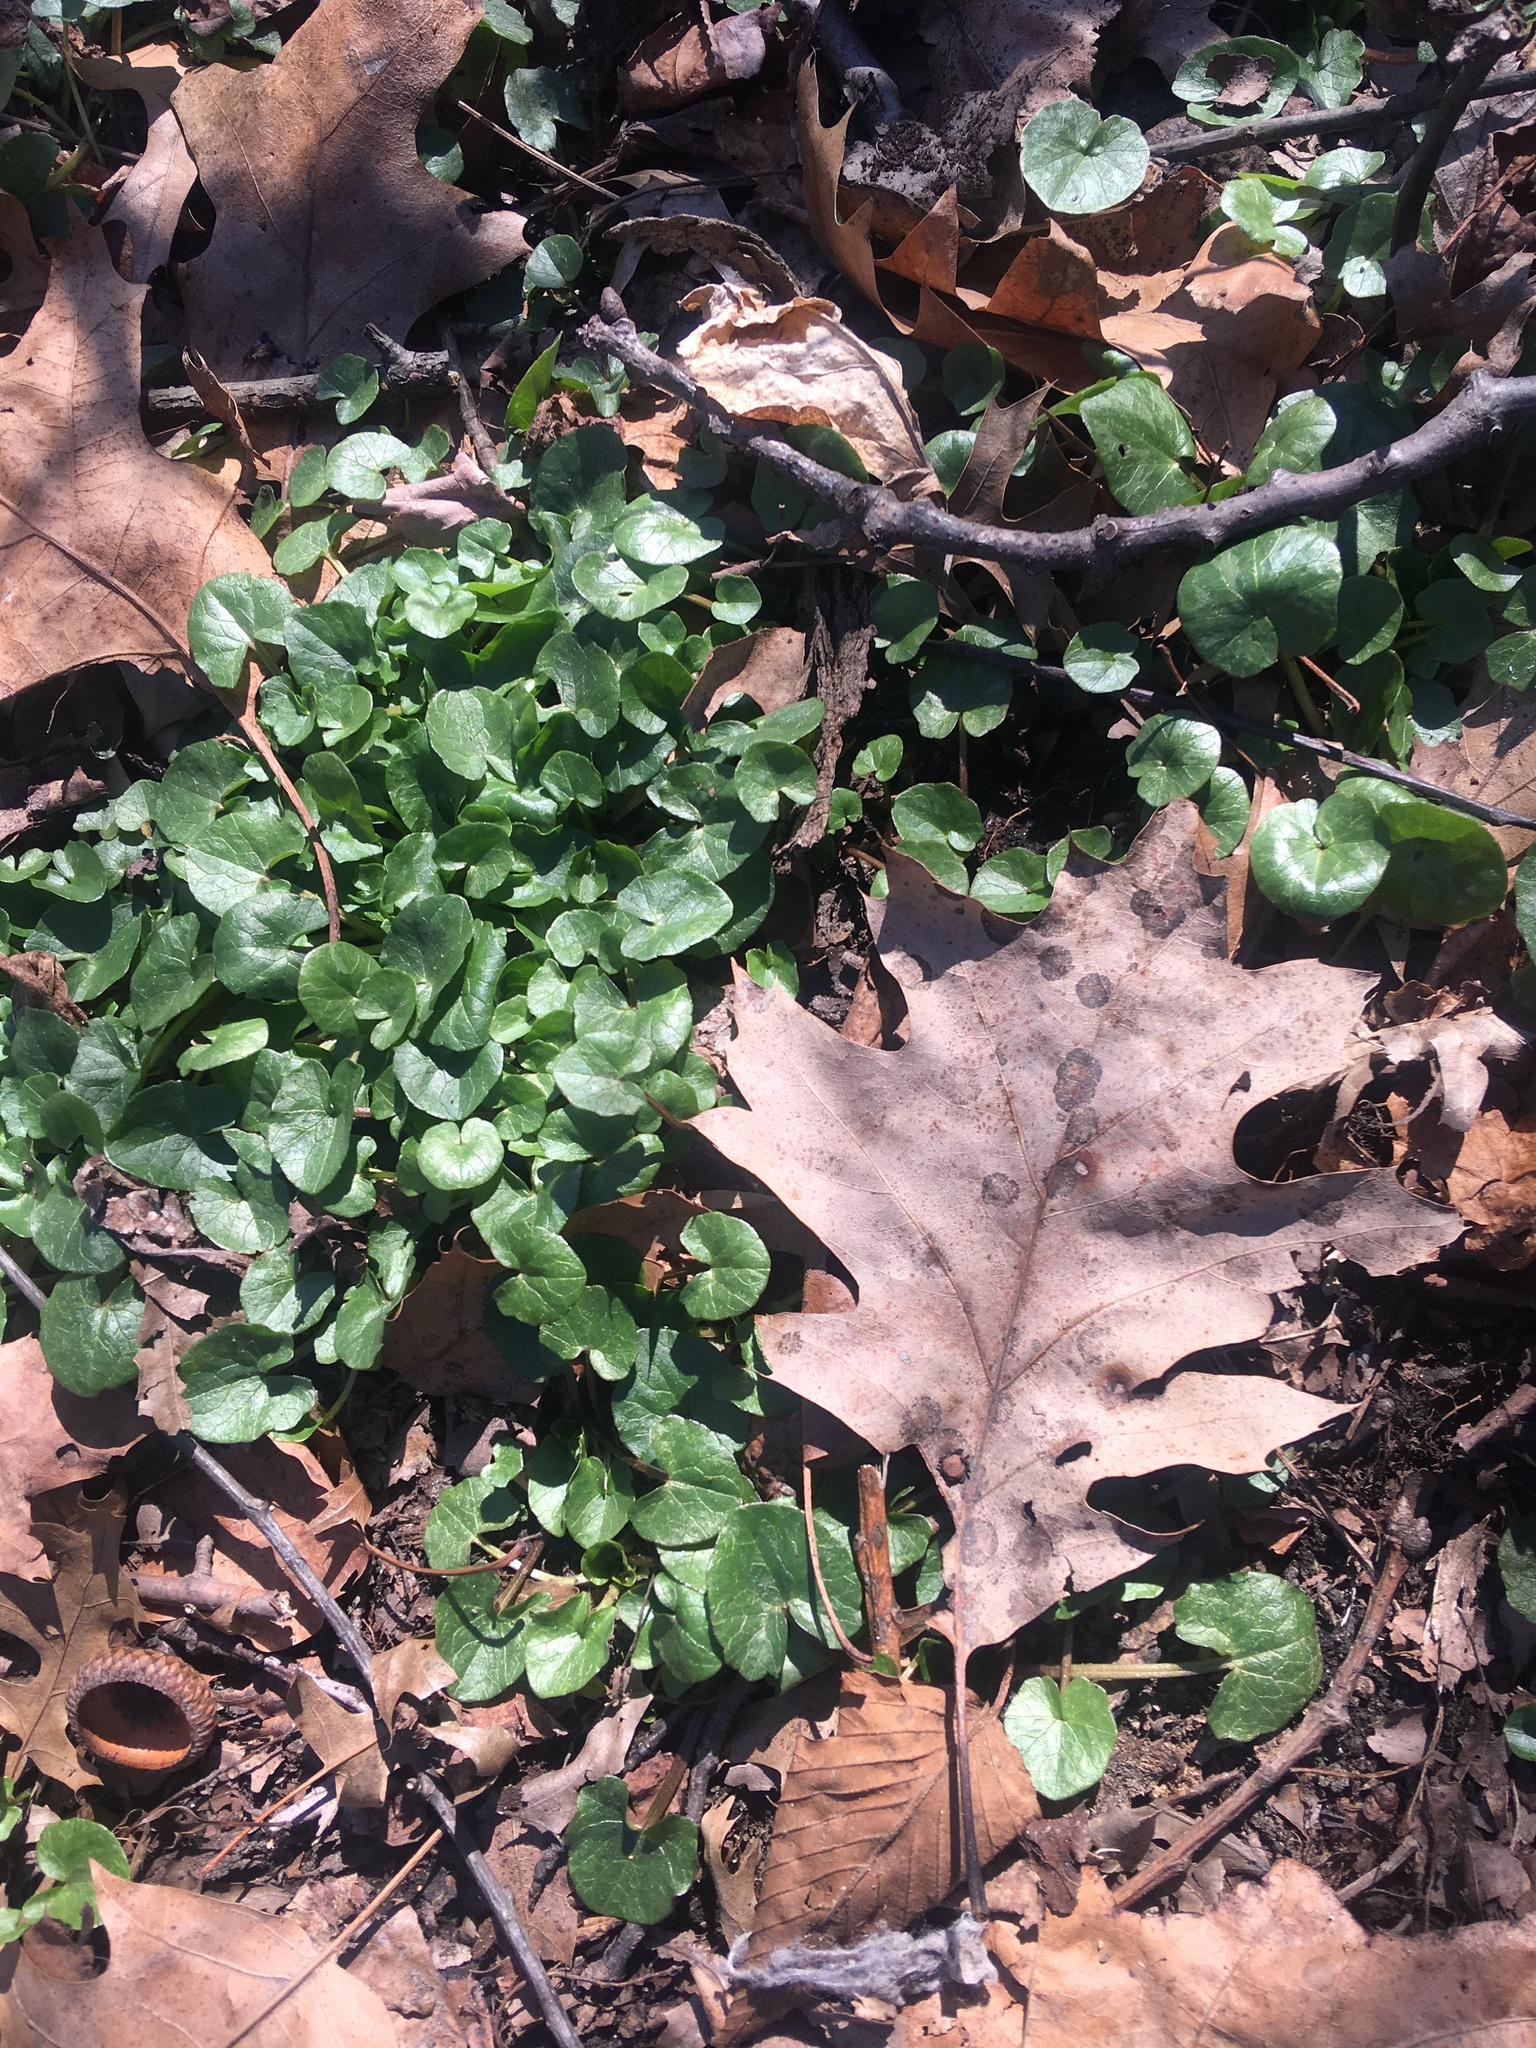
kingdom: Plantae
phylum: Tracheophyta
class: Magnoliopsida
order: Ranunculales
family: Ranunculaceae
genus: Ficaria
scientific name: Ficaria verna
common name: Lesser celandine
